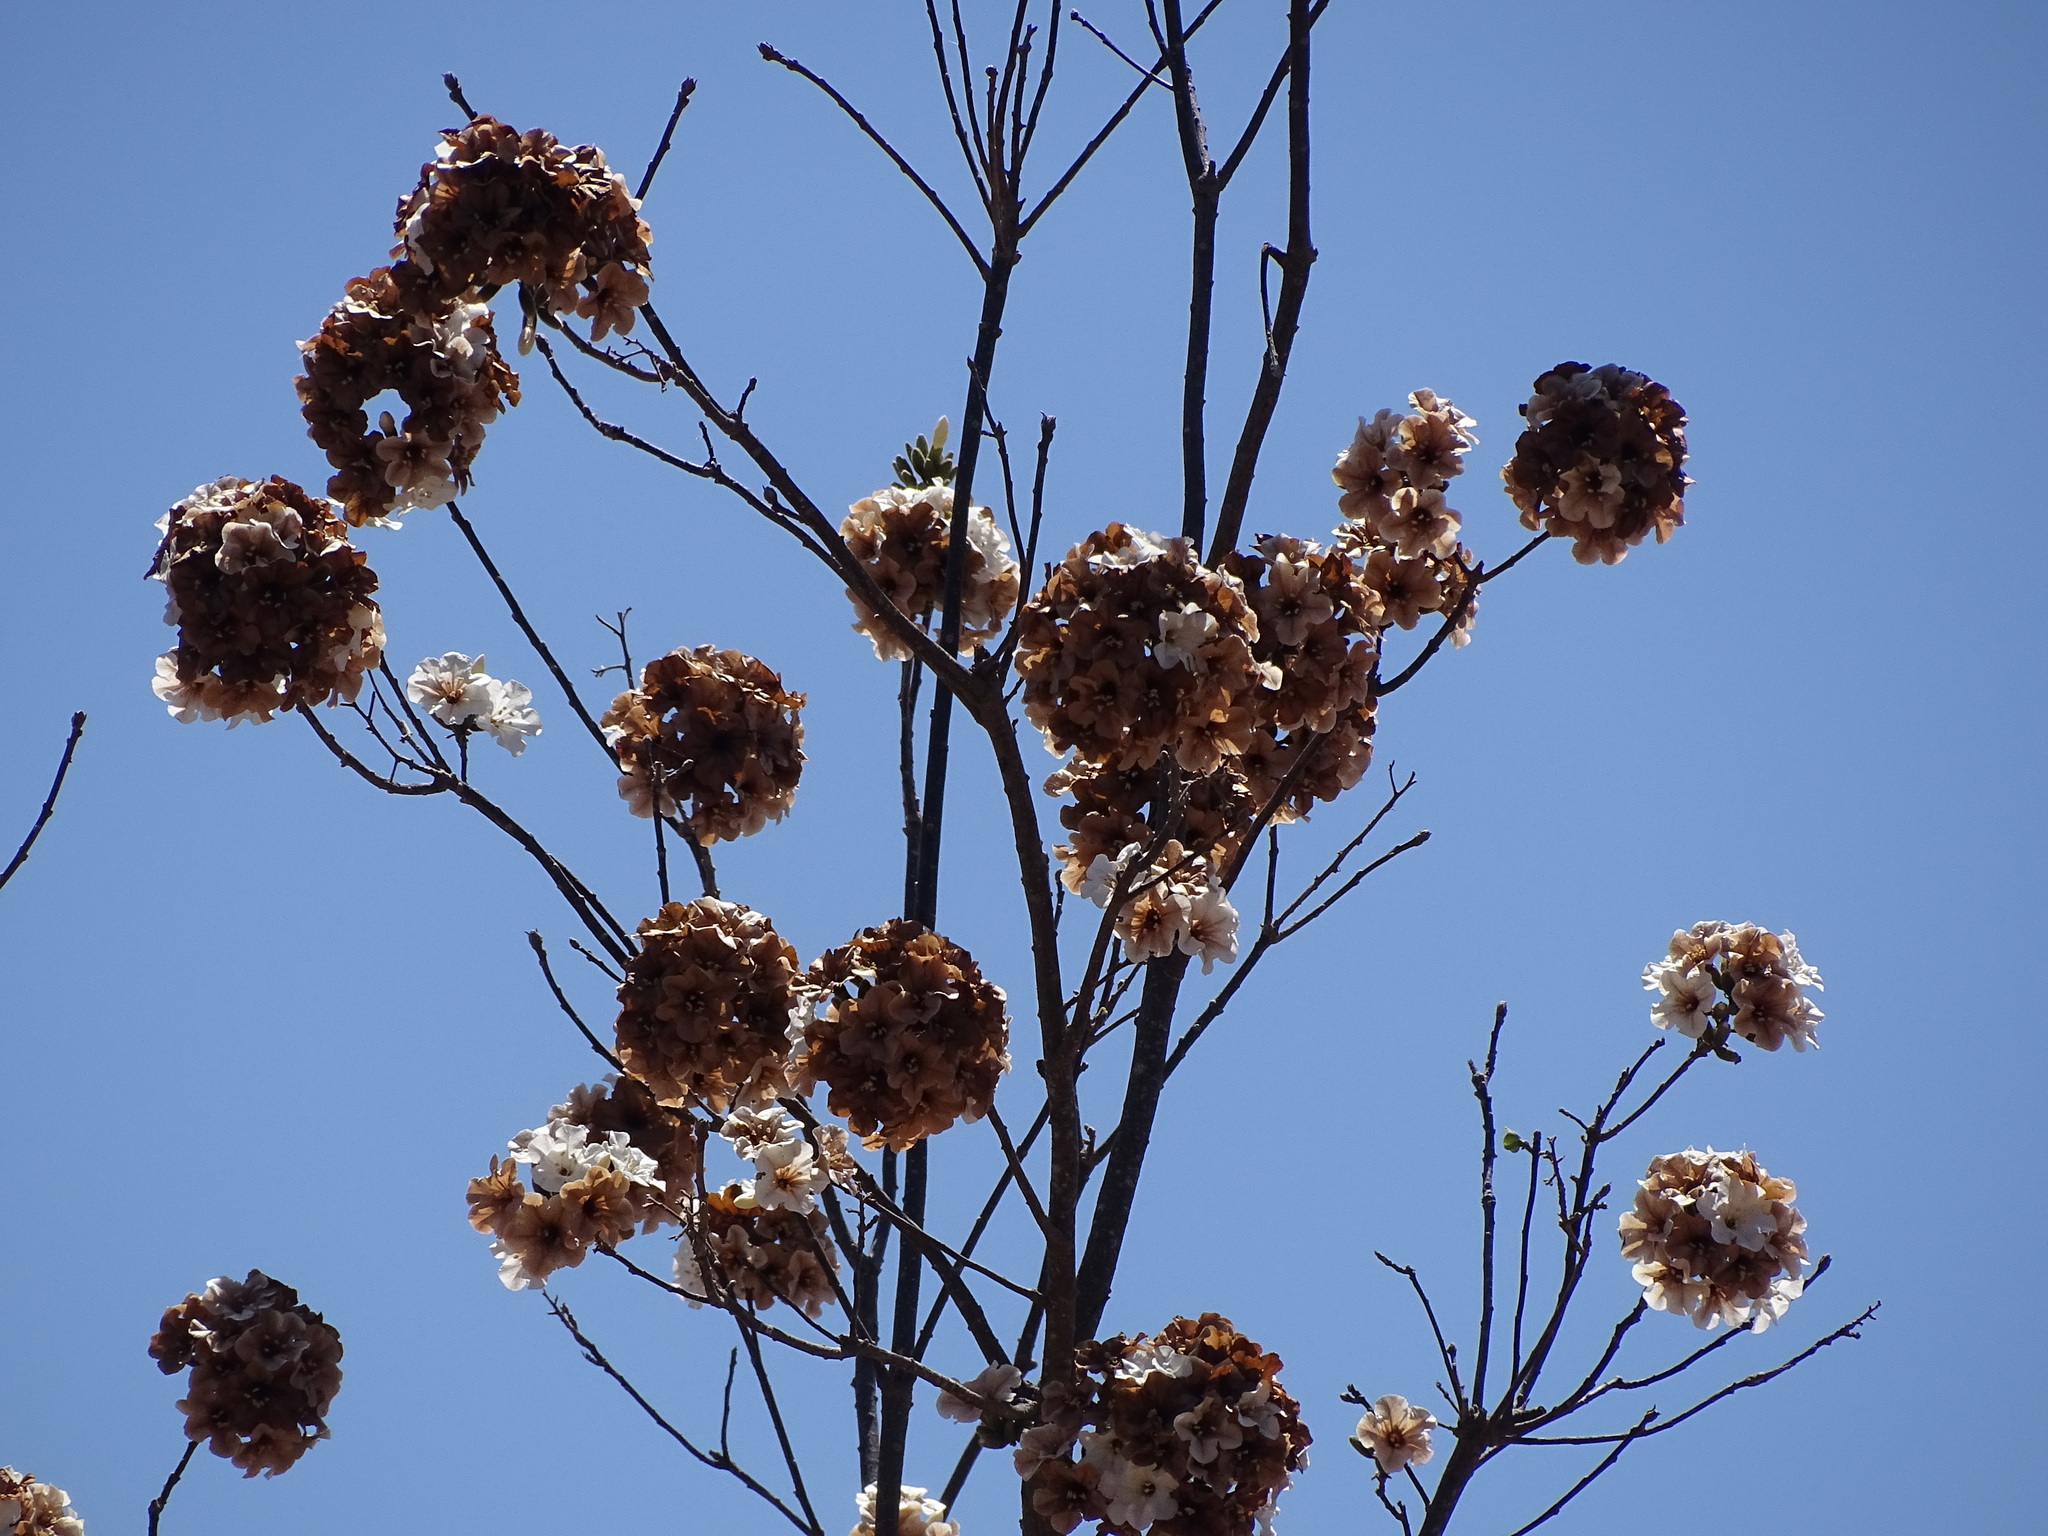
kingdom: Plantae
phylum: Tracheophyta
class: Magnoliopsida
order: Boraginales
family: Cordiaceae
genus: Cordia
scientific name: Cordia sonorae
